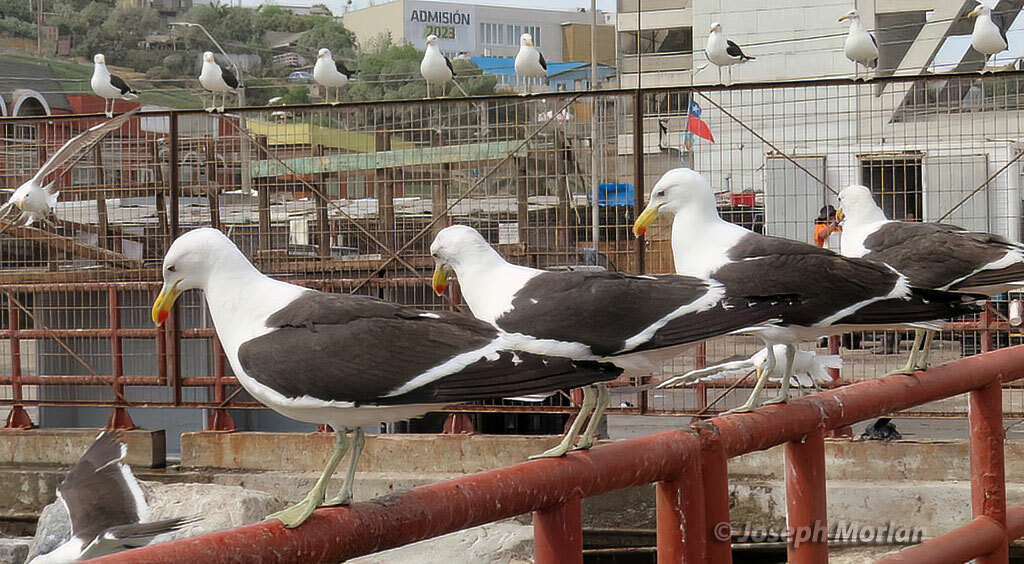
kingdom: Animalia
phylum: Chordata
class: Aves
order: Charadriiformes
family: Laridae
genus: Larus
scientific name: Larus dominicanus
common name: Kelp gull
